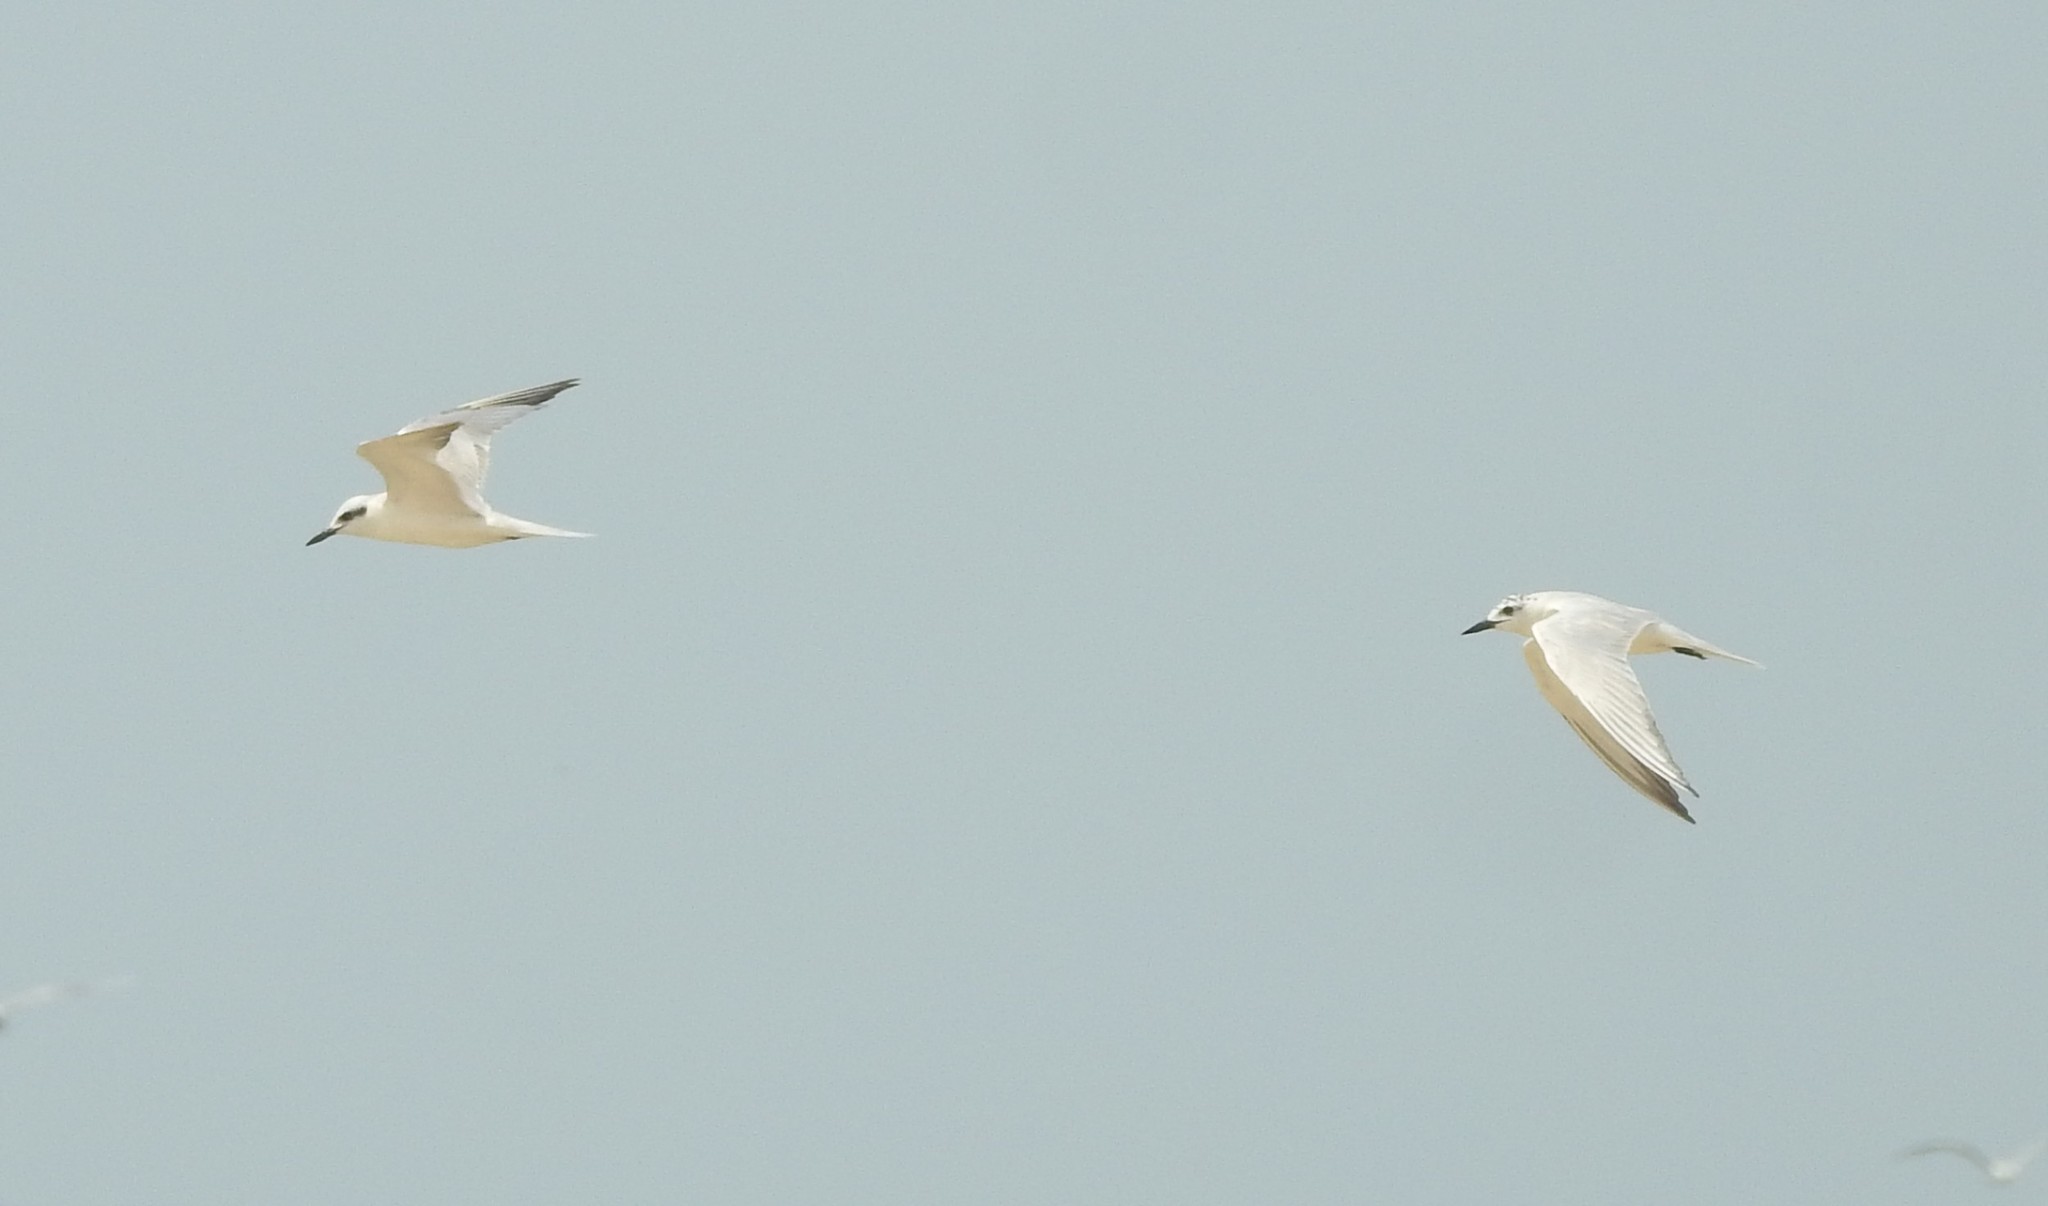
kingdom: Animalia
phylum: Chordata
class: Aves
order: Charadriiformes
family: Laridae
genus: Gelochelidon
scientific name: Gelochelidon nilotica
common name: Gull-billed tern
